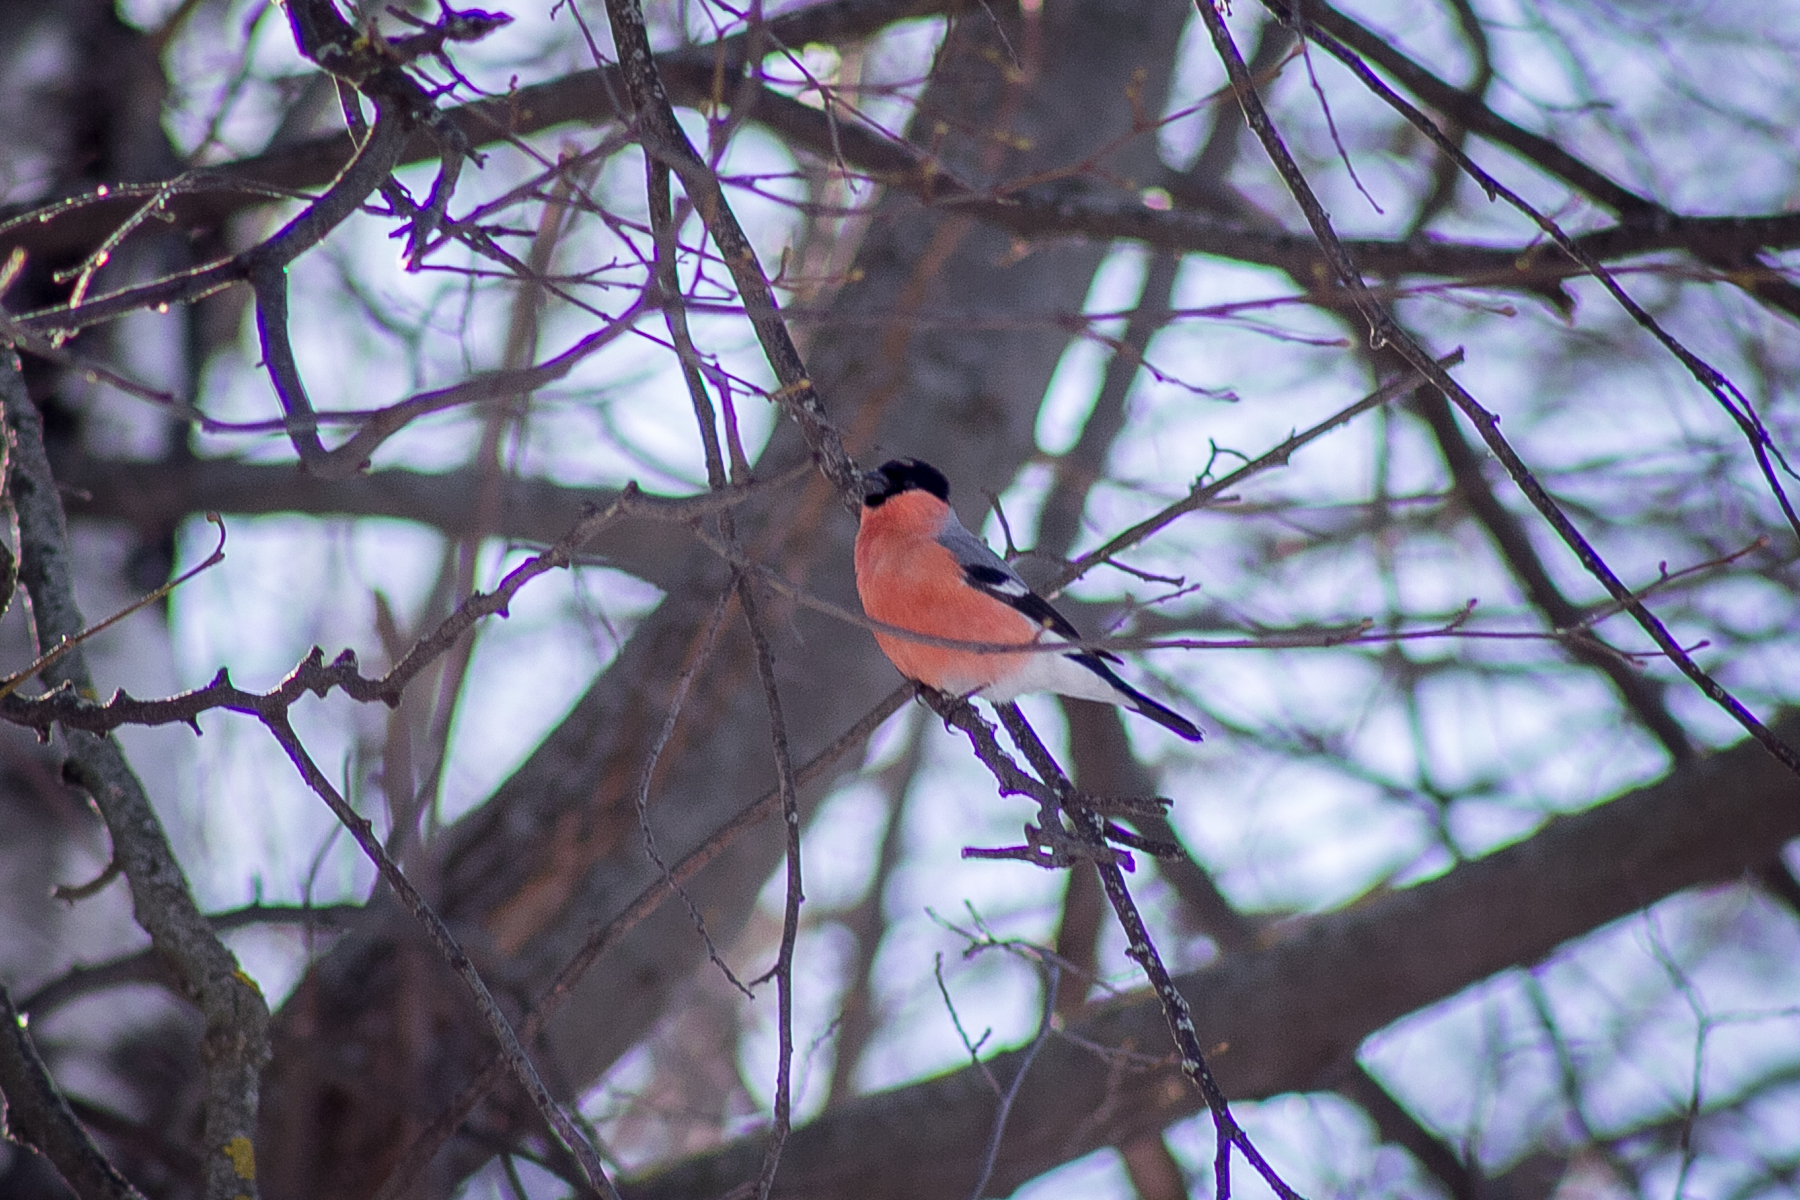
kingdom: Animalia
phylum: Chordata
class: Aves
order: Passeriformes
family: Fringillidae
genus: Pyrrhula
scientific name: Pyrrhula pyrrhula
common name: Eurasian bullfinch
